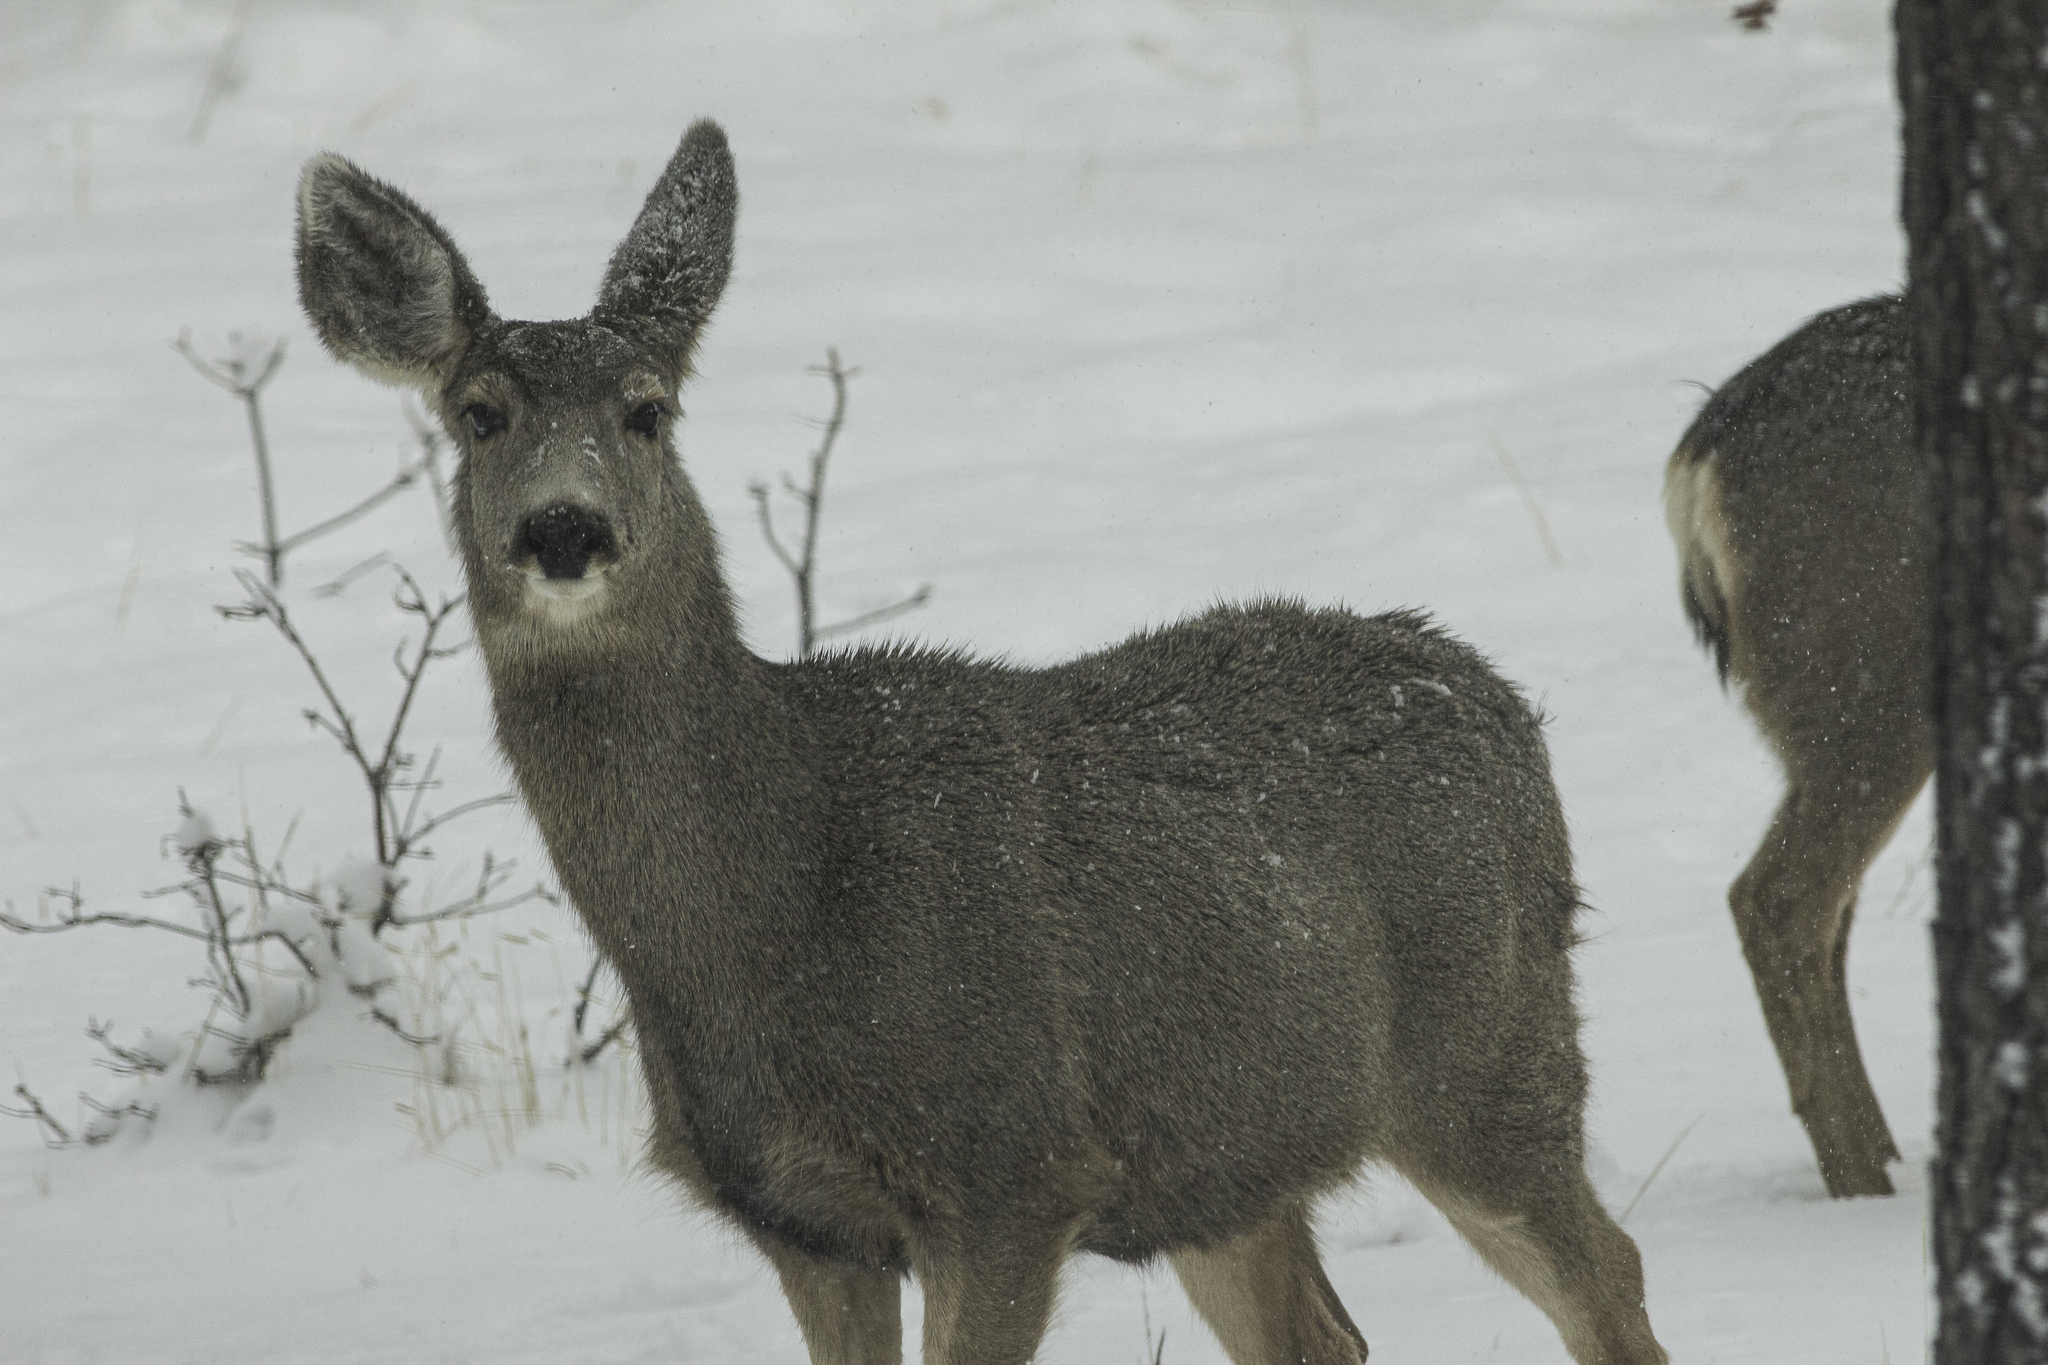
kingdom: Animalia
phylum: Chordata
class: Mammalia
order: Artiodactyla
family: Cervidae
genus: Odocoileus
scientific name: Odocoileus hemionus
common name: Mule deer
